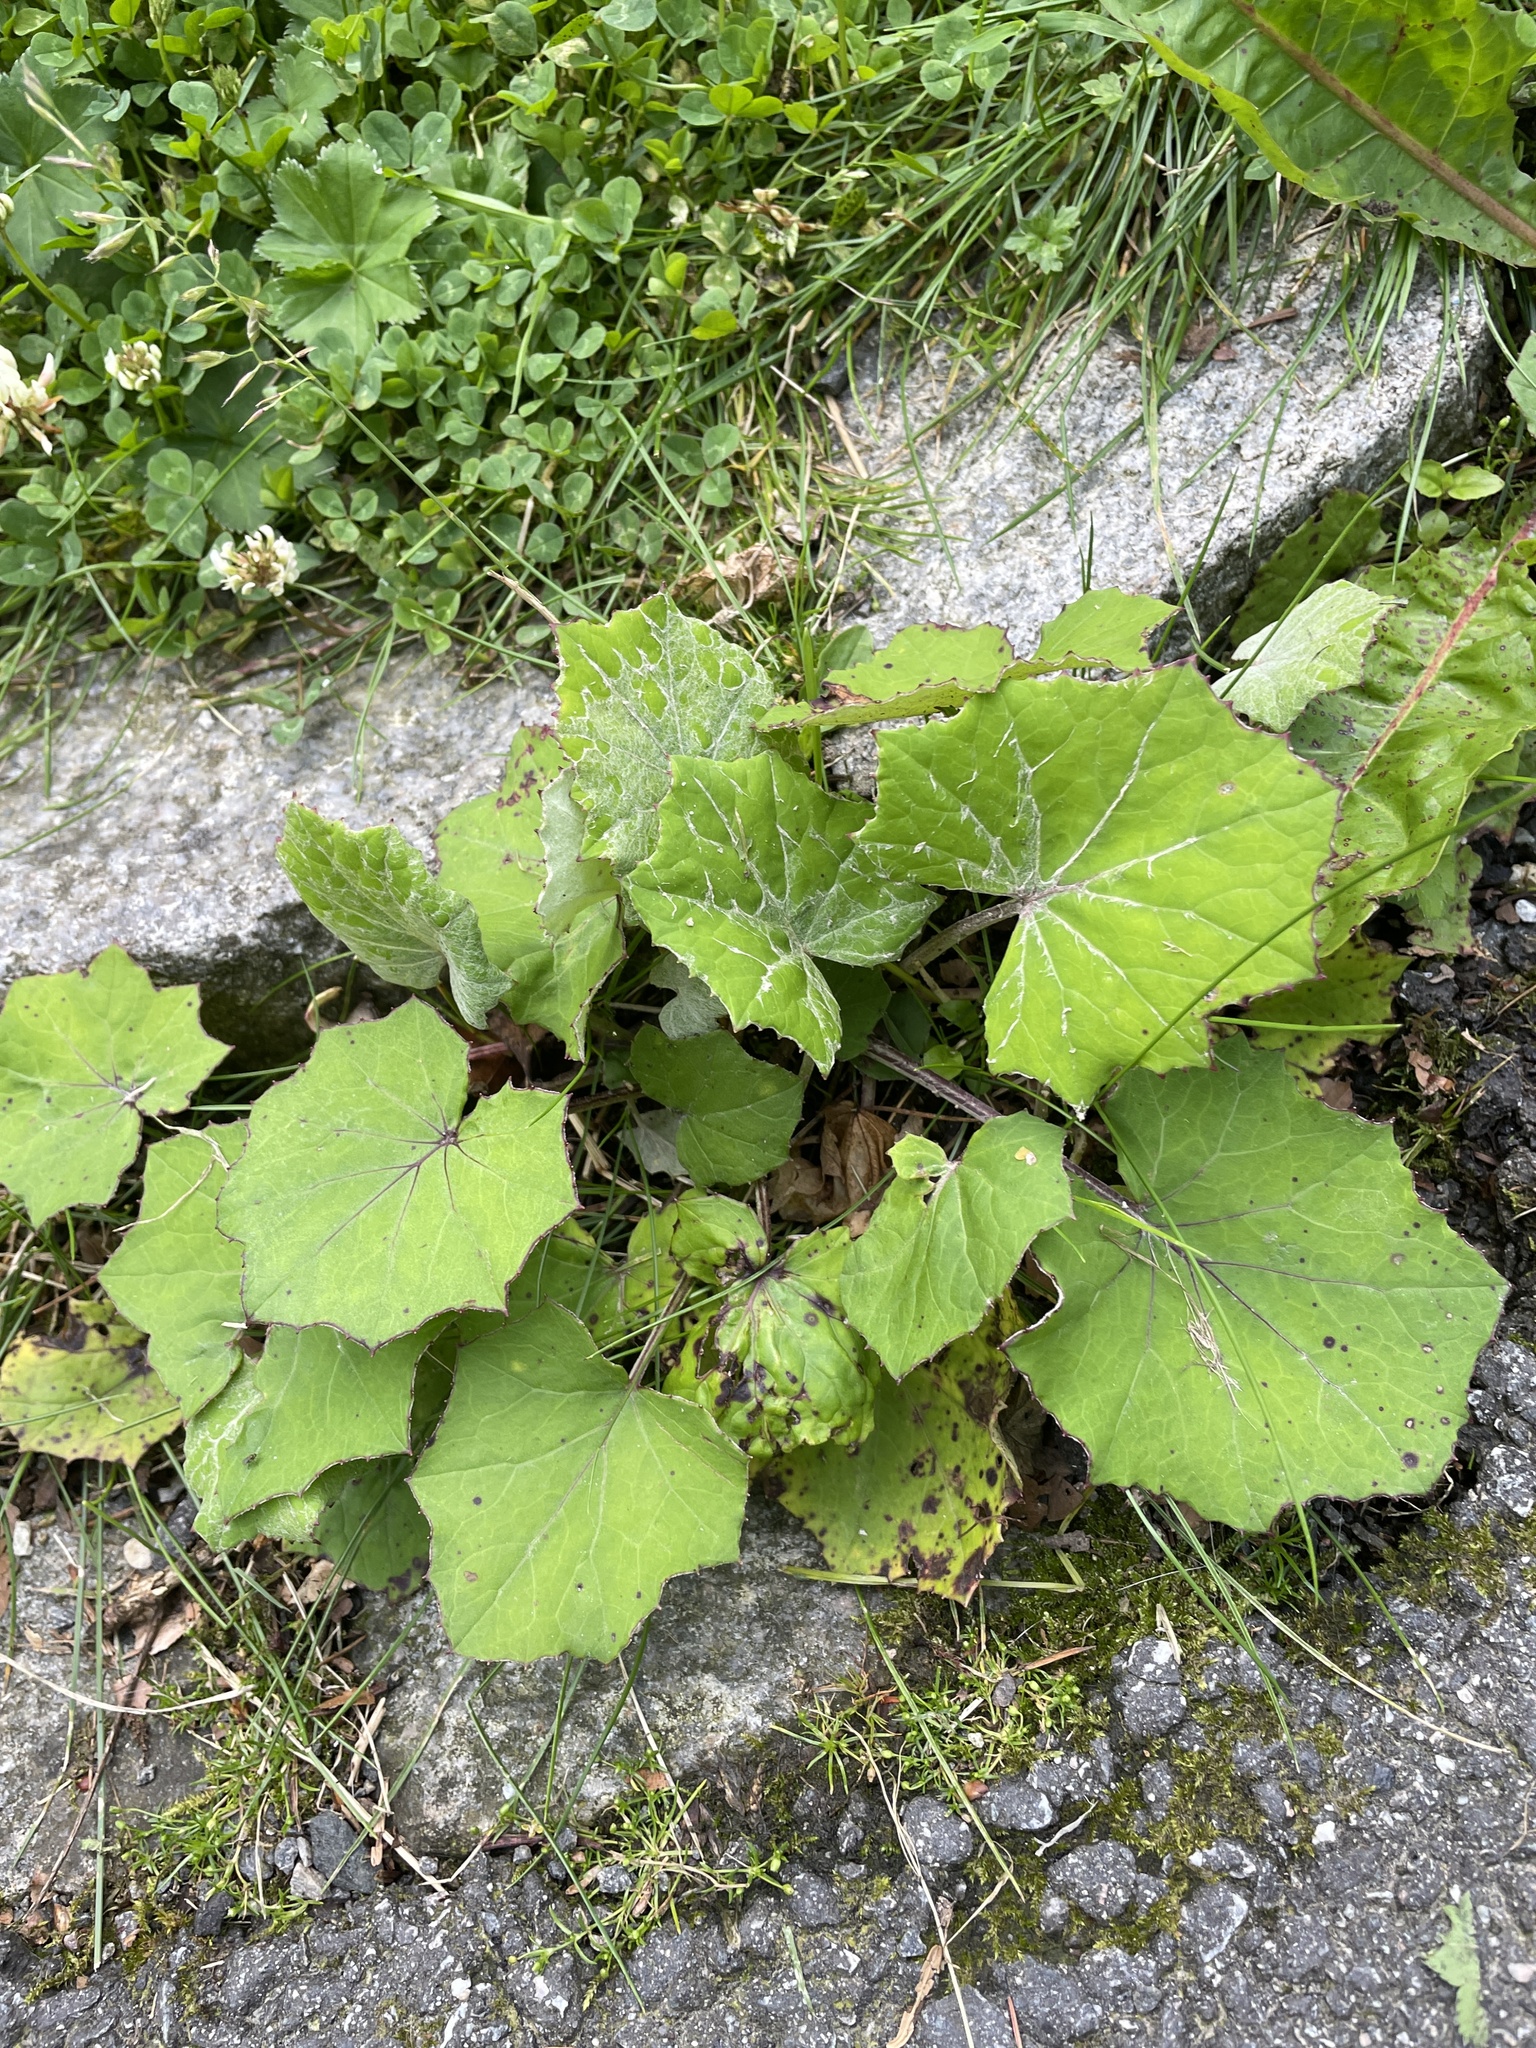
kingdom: Plantae
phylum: Tracheophyta
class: Magnoliopsida
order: Asterales
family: Asteraceae
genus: Tussilago
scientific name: Tussilago farfara
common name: Coltsfoot
